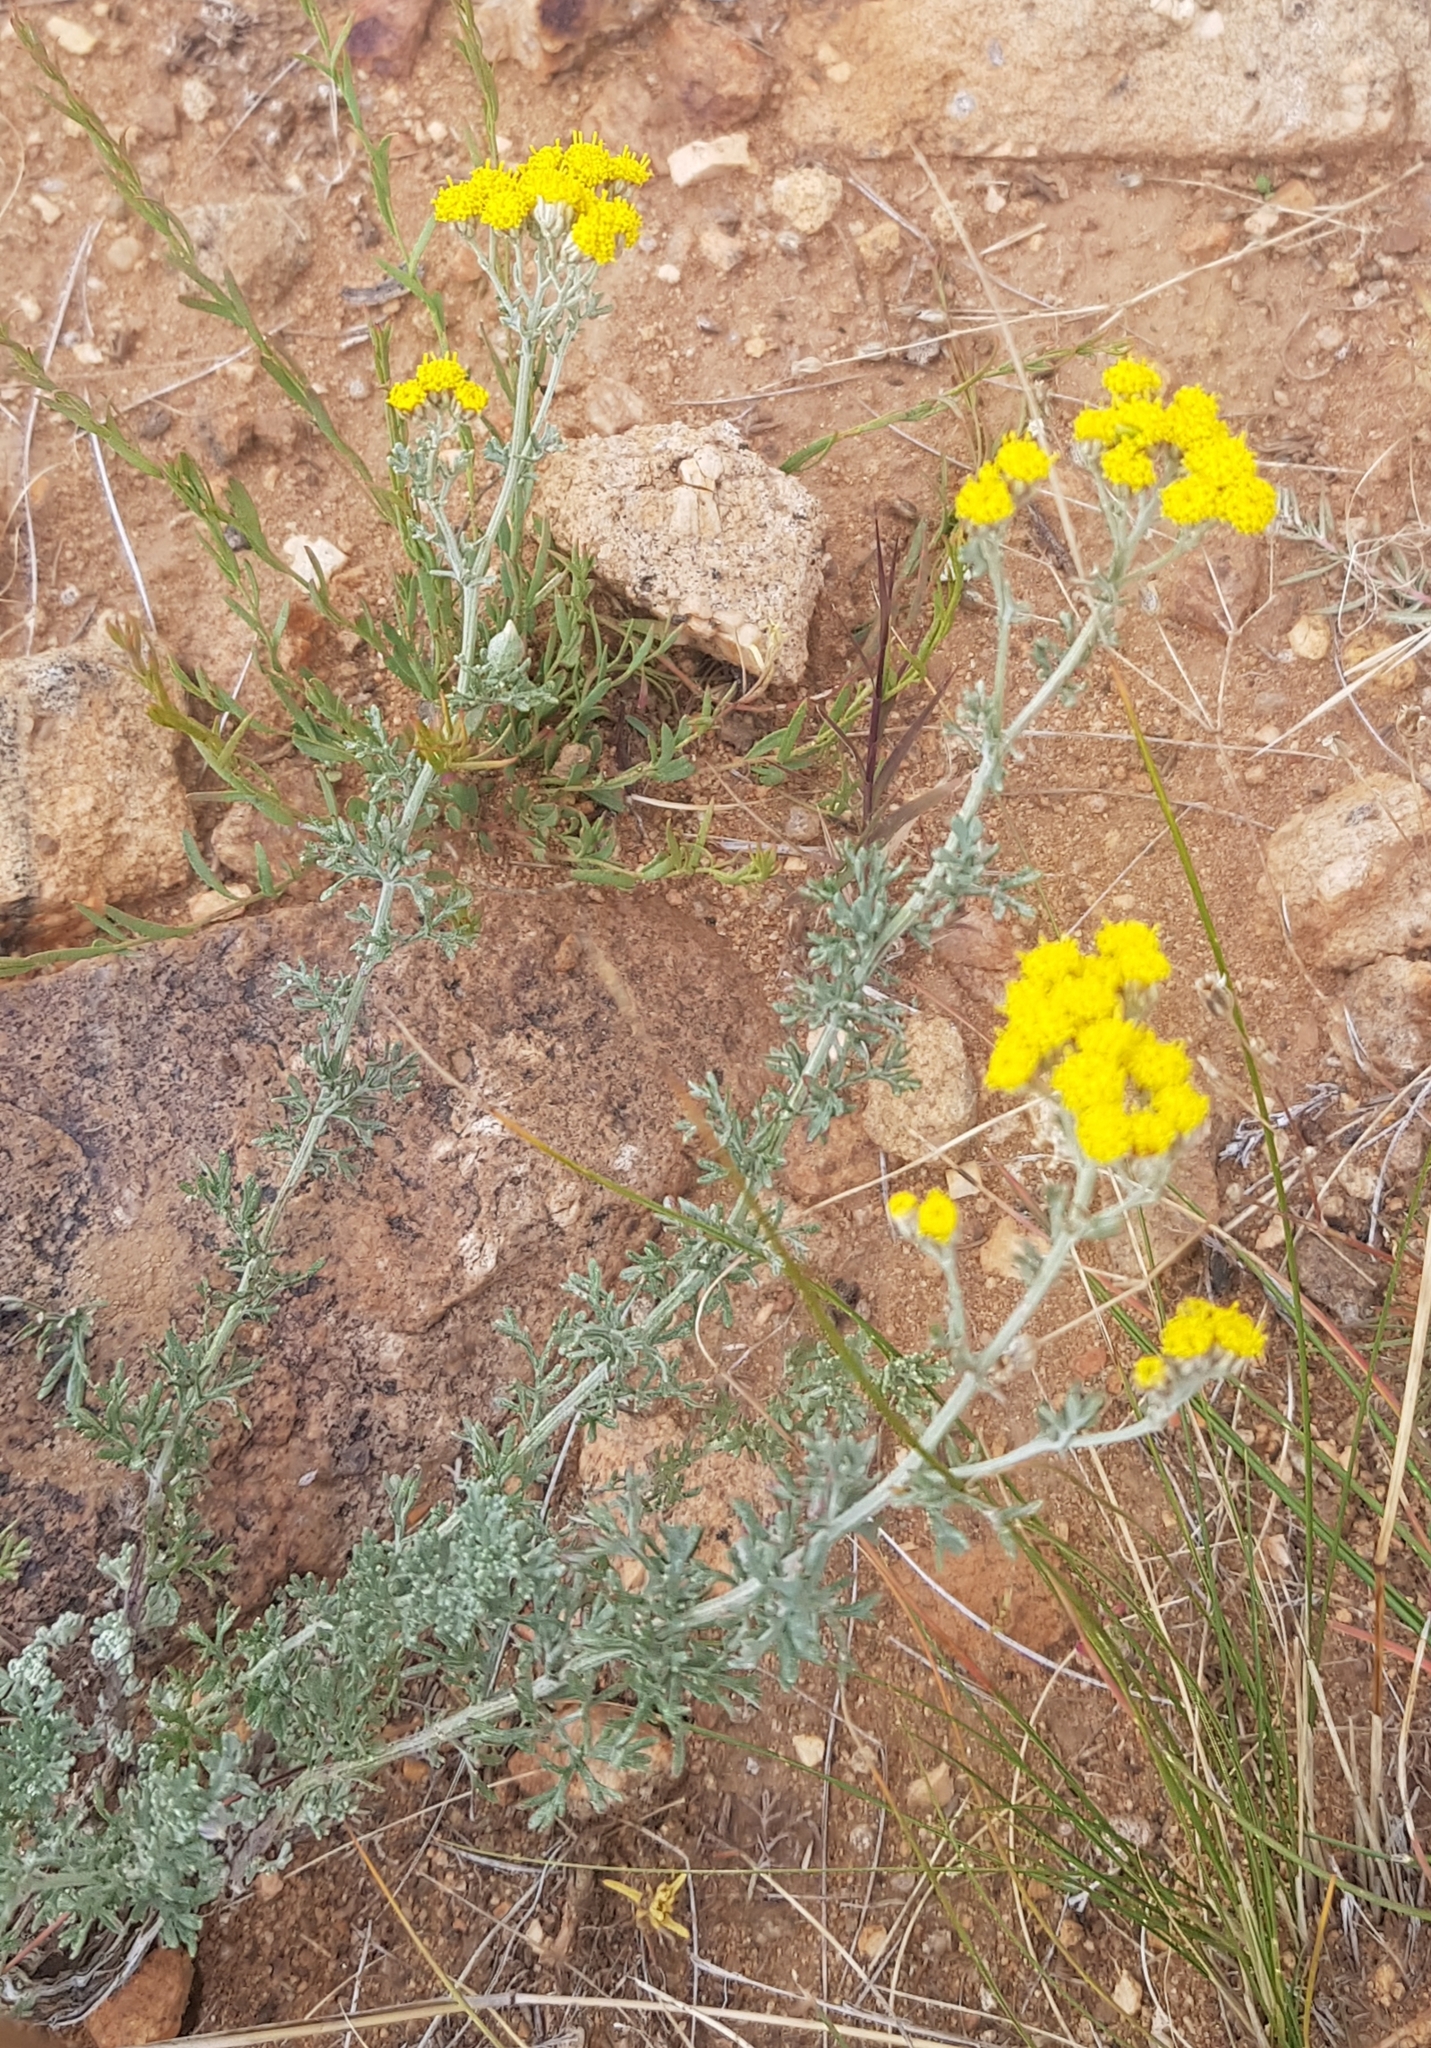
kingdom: Plantae
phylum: Tracheophyta
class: Magnoliopsida
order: Asterales
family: Asteraceae
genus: Ajania
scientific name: Ajania achilleoides
